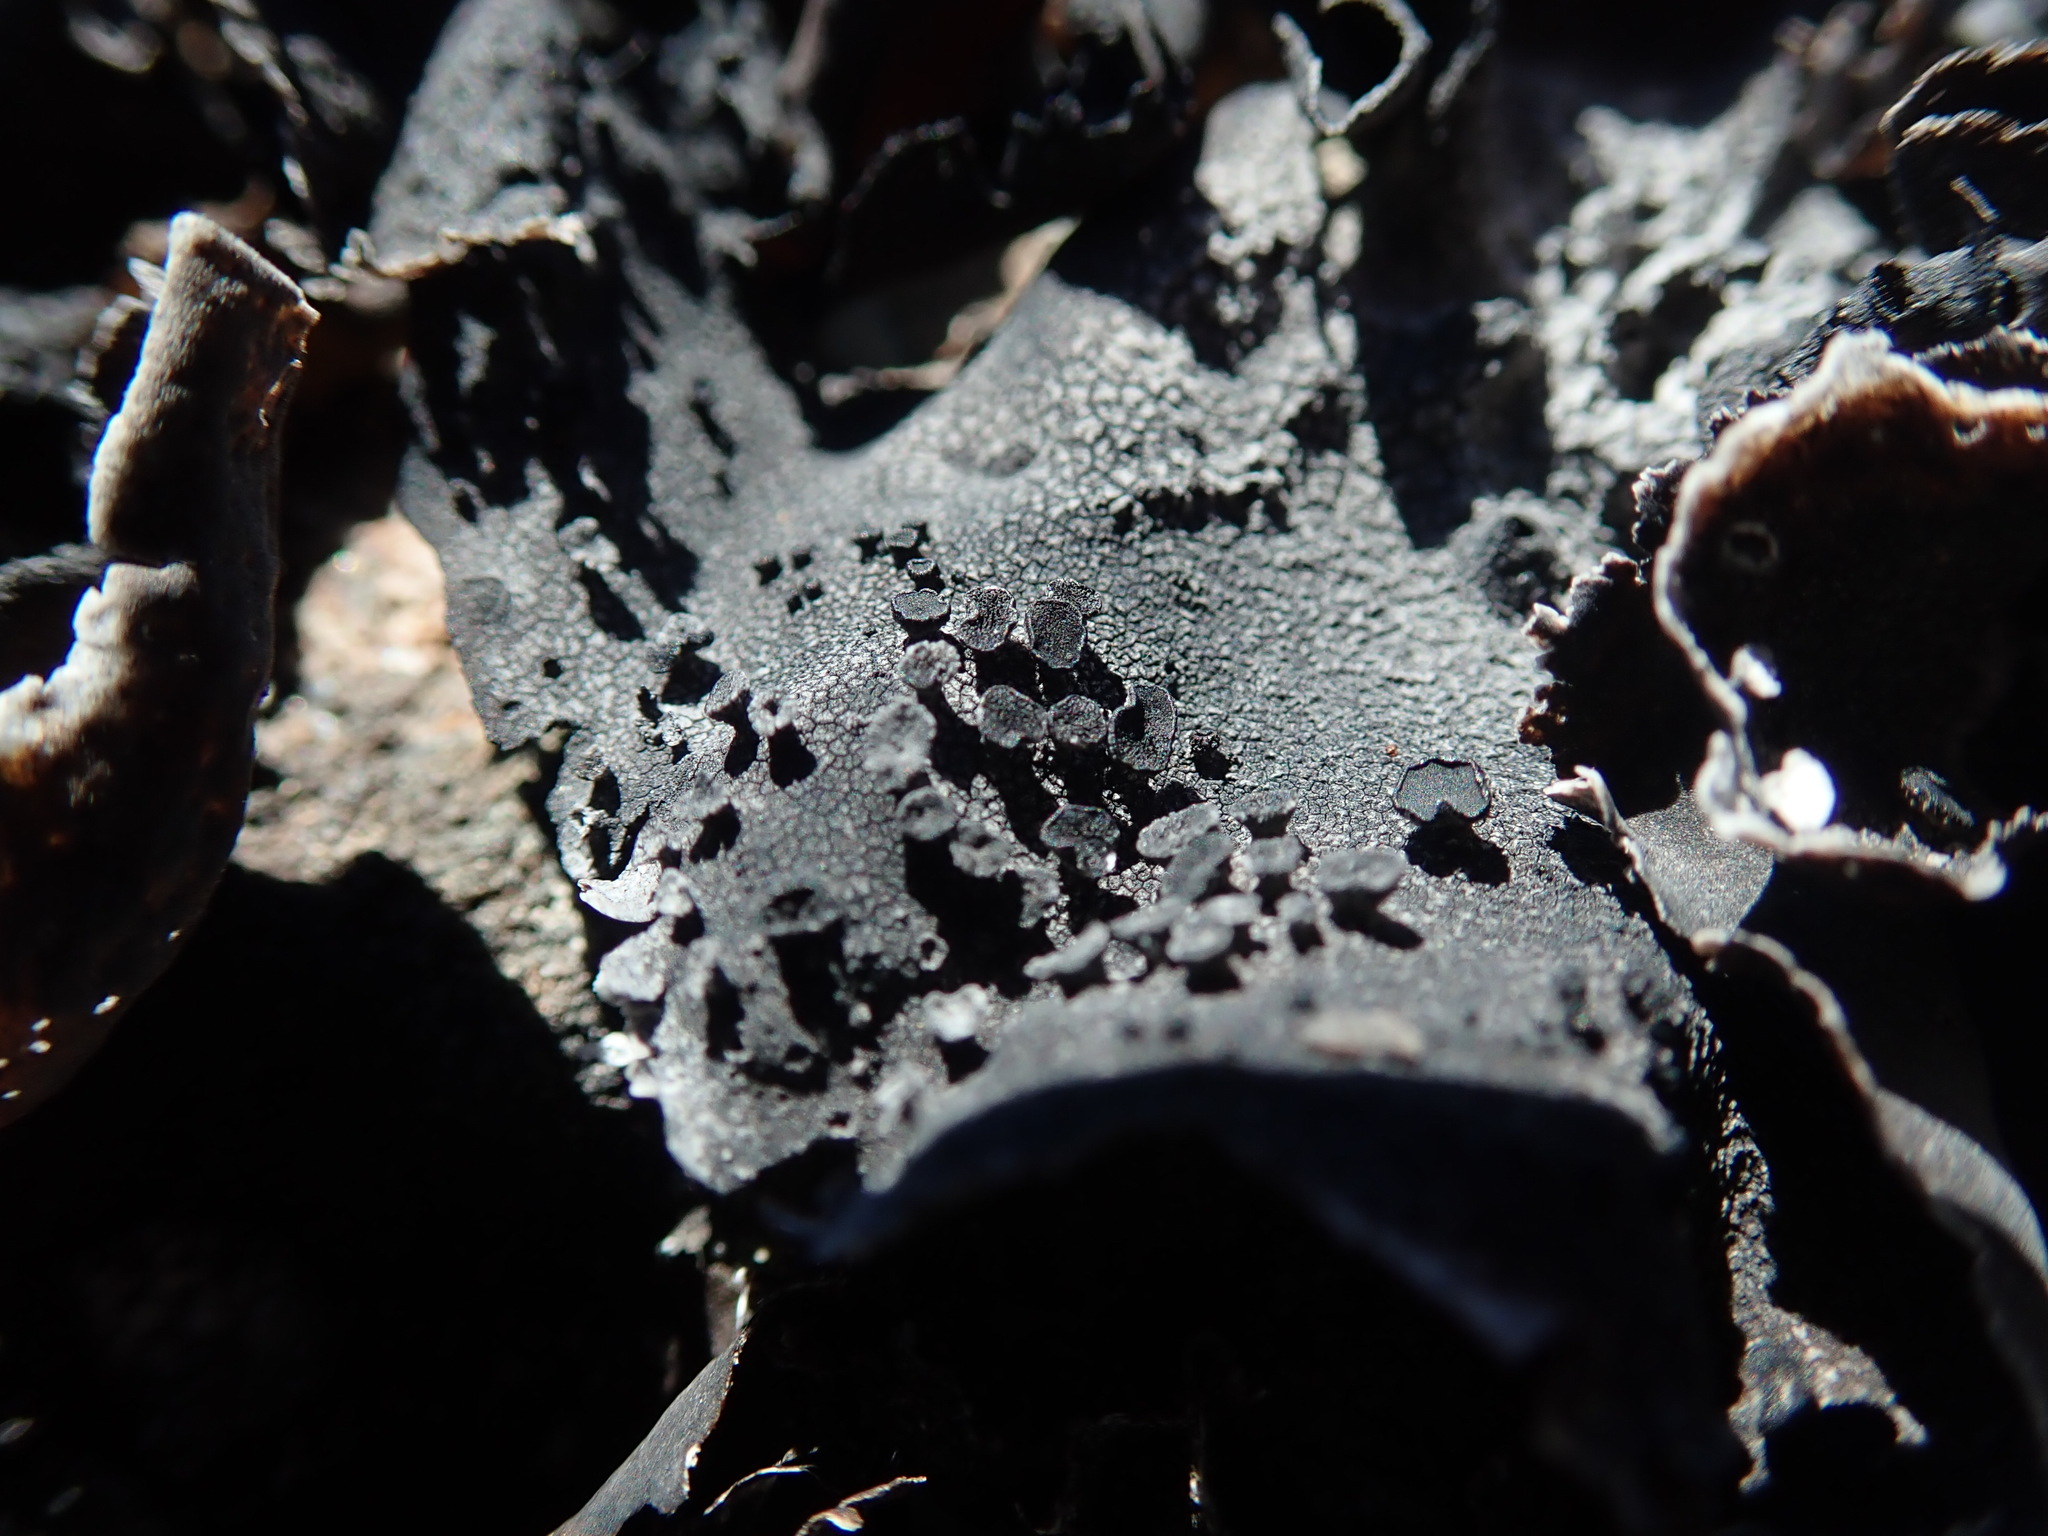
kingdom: Fungi
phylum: Ascomycota
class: Lecanoromycetes
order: Umbilicariales
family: Umbilicariaceae
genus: Umbilicaria
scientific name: Umbilicaria rigida
